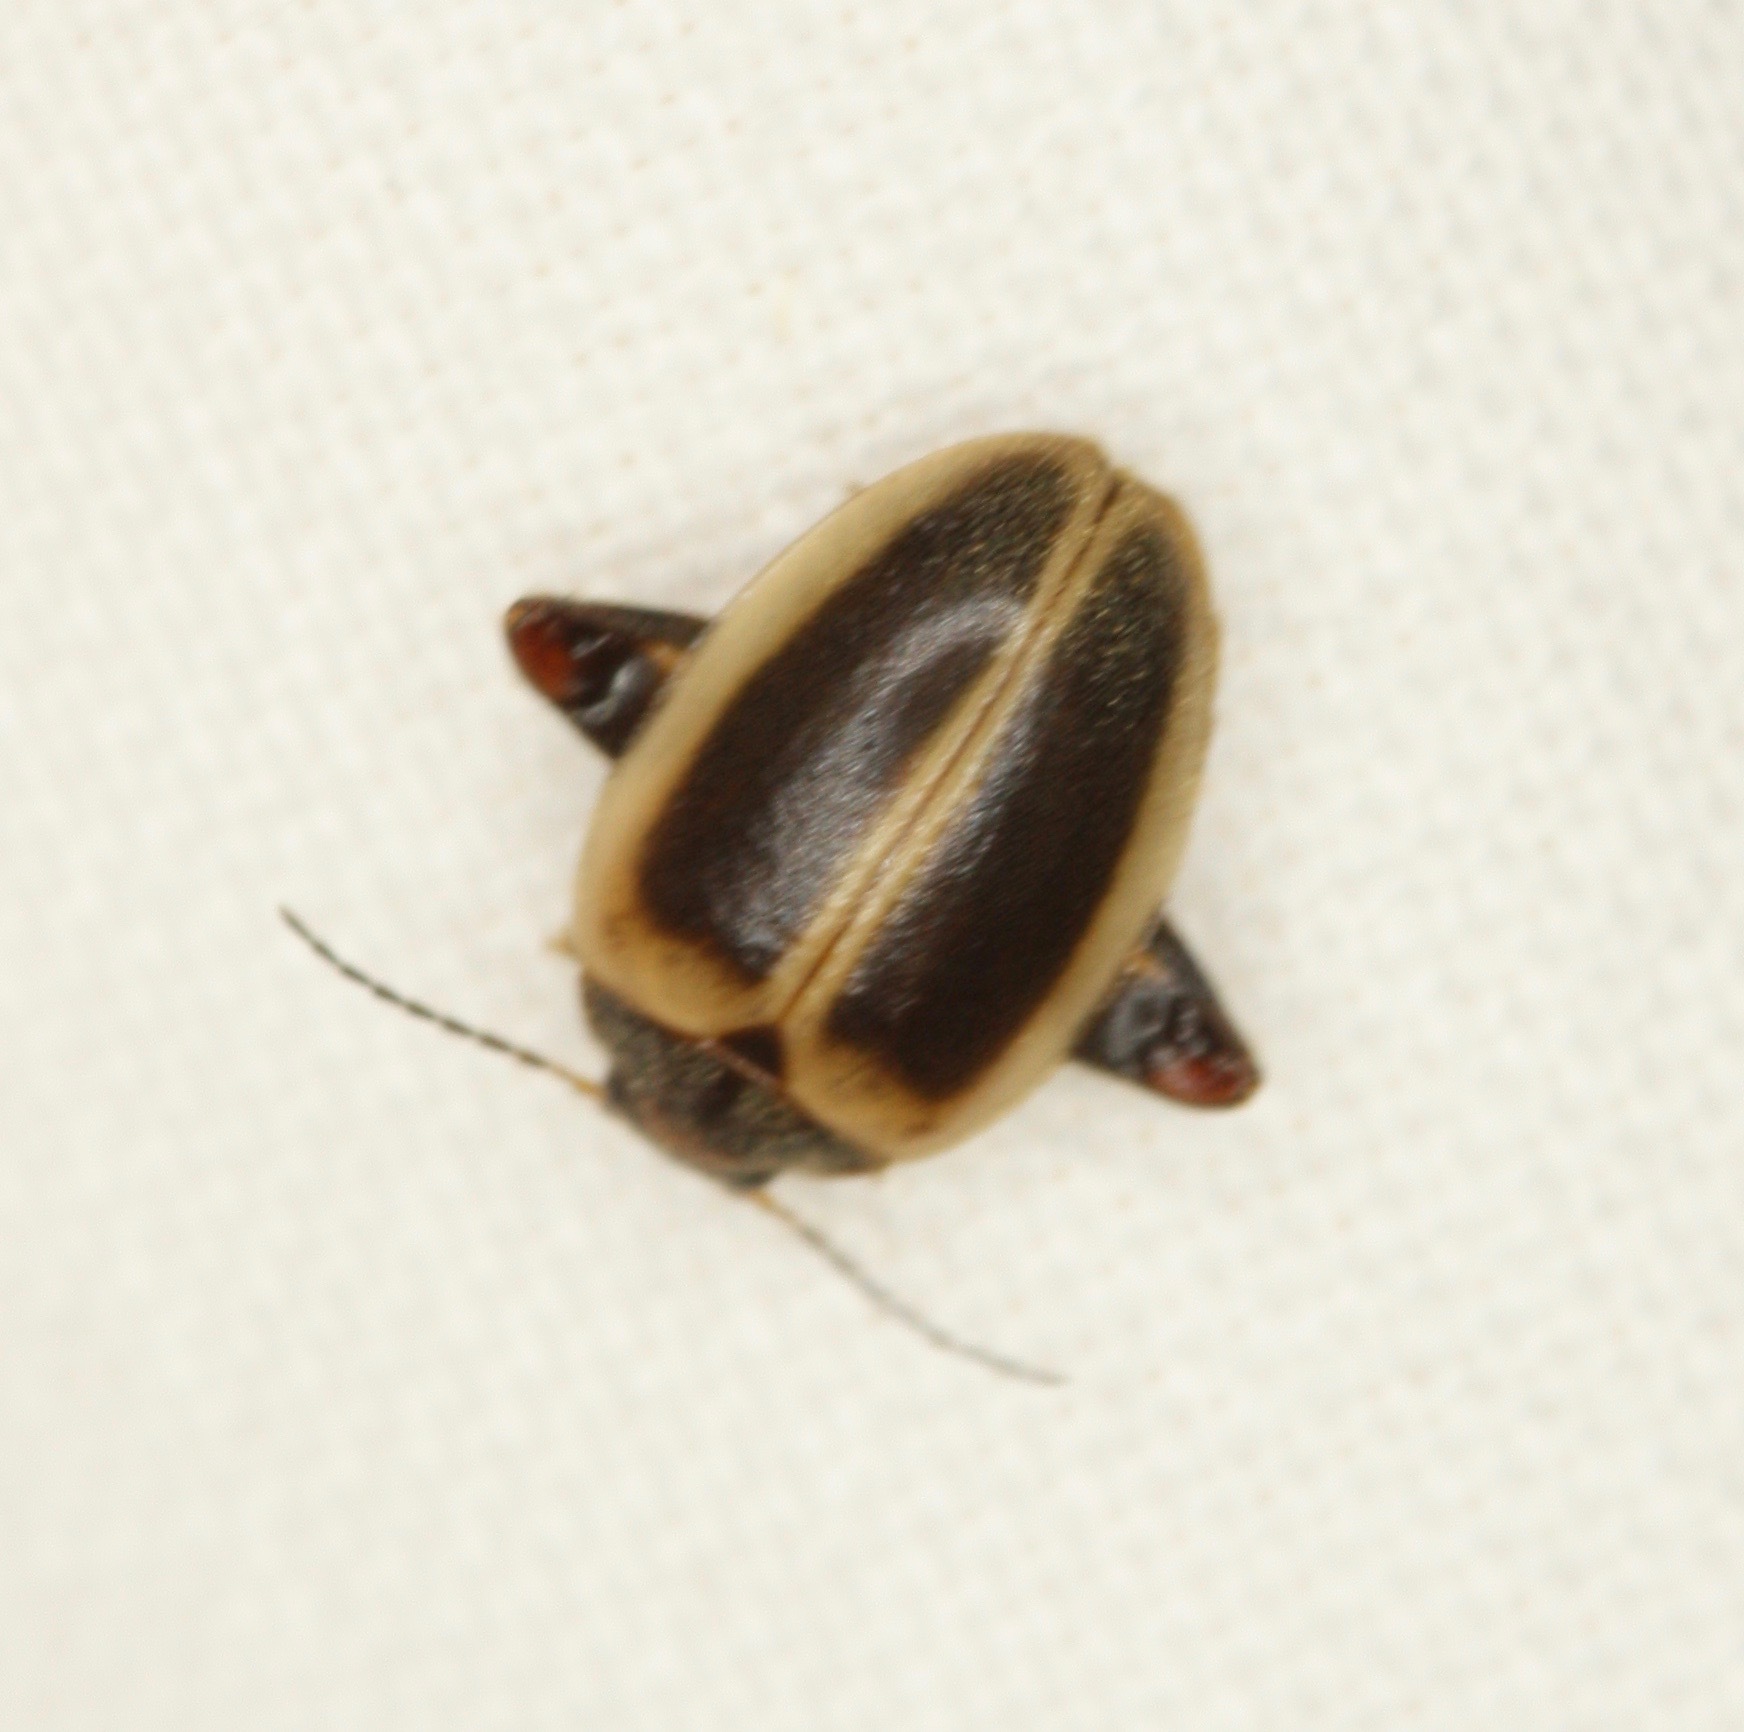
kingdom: Animalia
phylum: Arthropoda
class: Insecta
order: Coleoptera
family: Scirtidae
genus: Ora
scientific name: Ora discoidea
